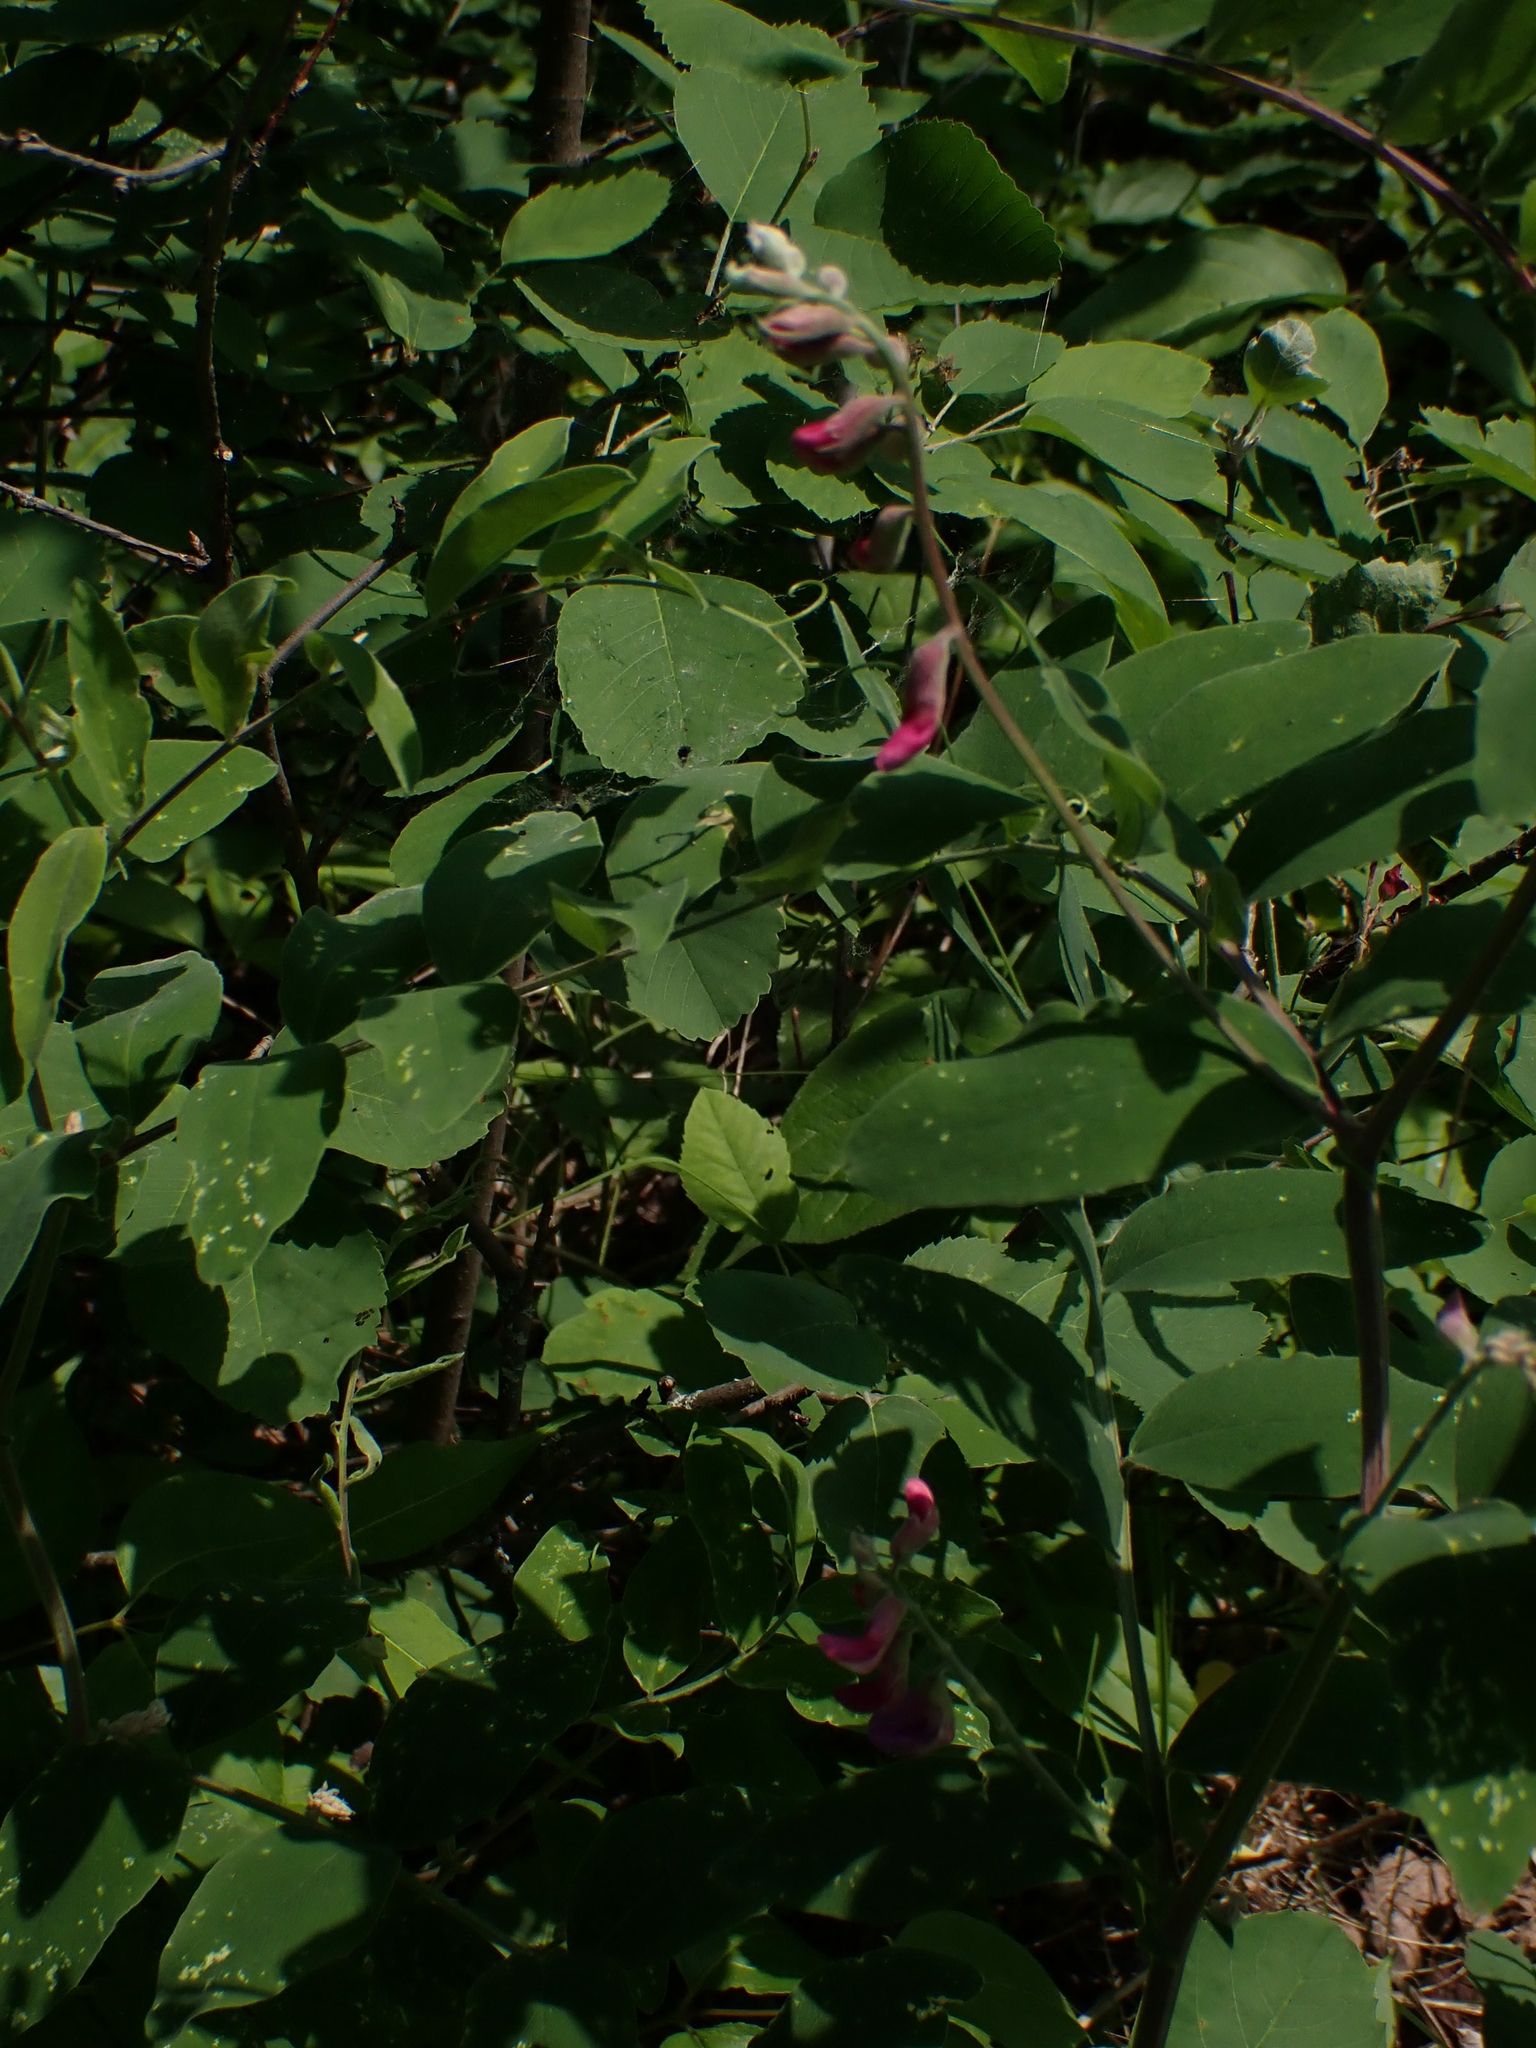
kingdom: Plantae
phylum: Tracheophyta
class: Magnoliopsida
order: Fabales
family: Fabaceae
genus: Lathyrus
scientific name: Lathyrus venosus
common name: Forest-pea
